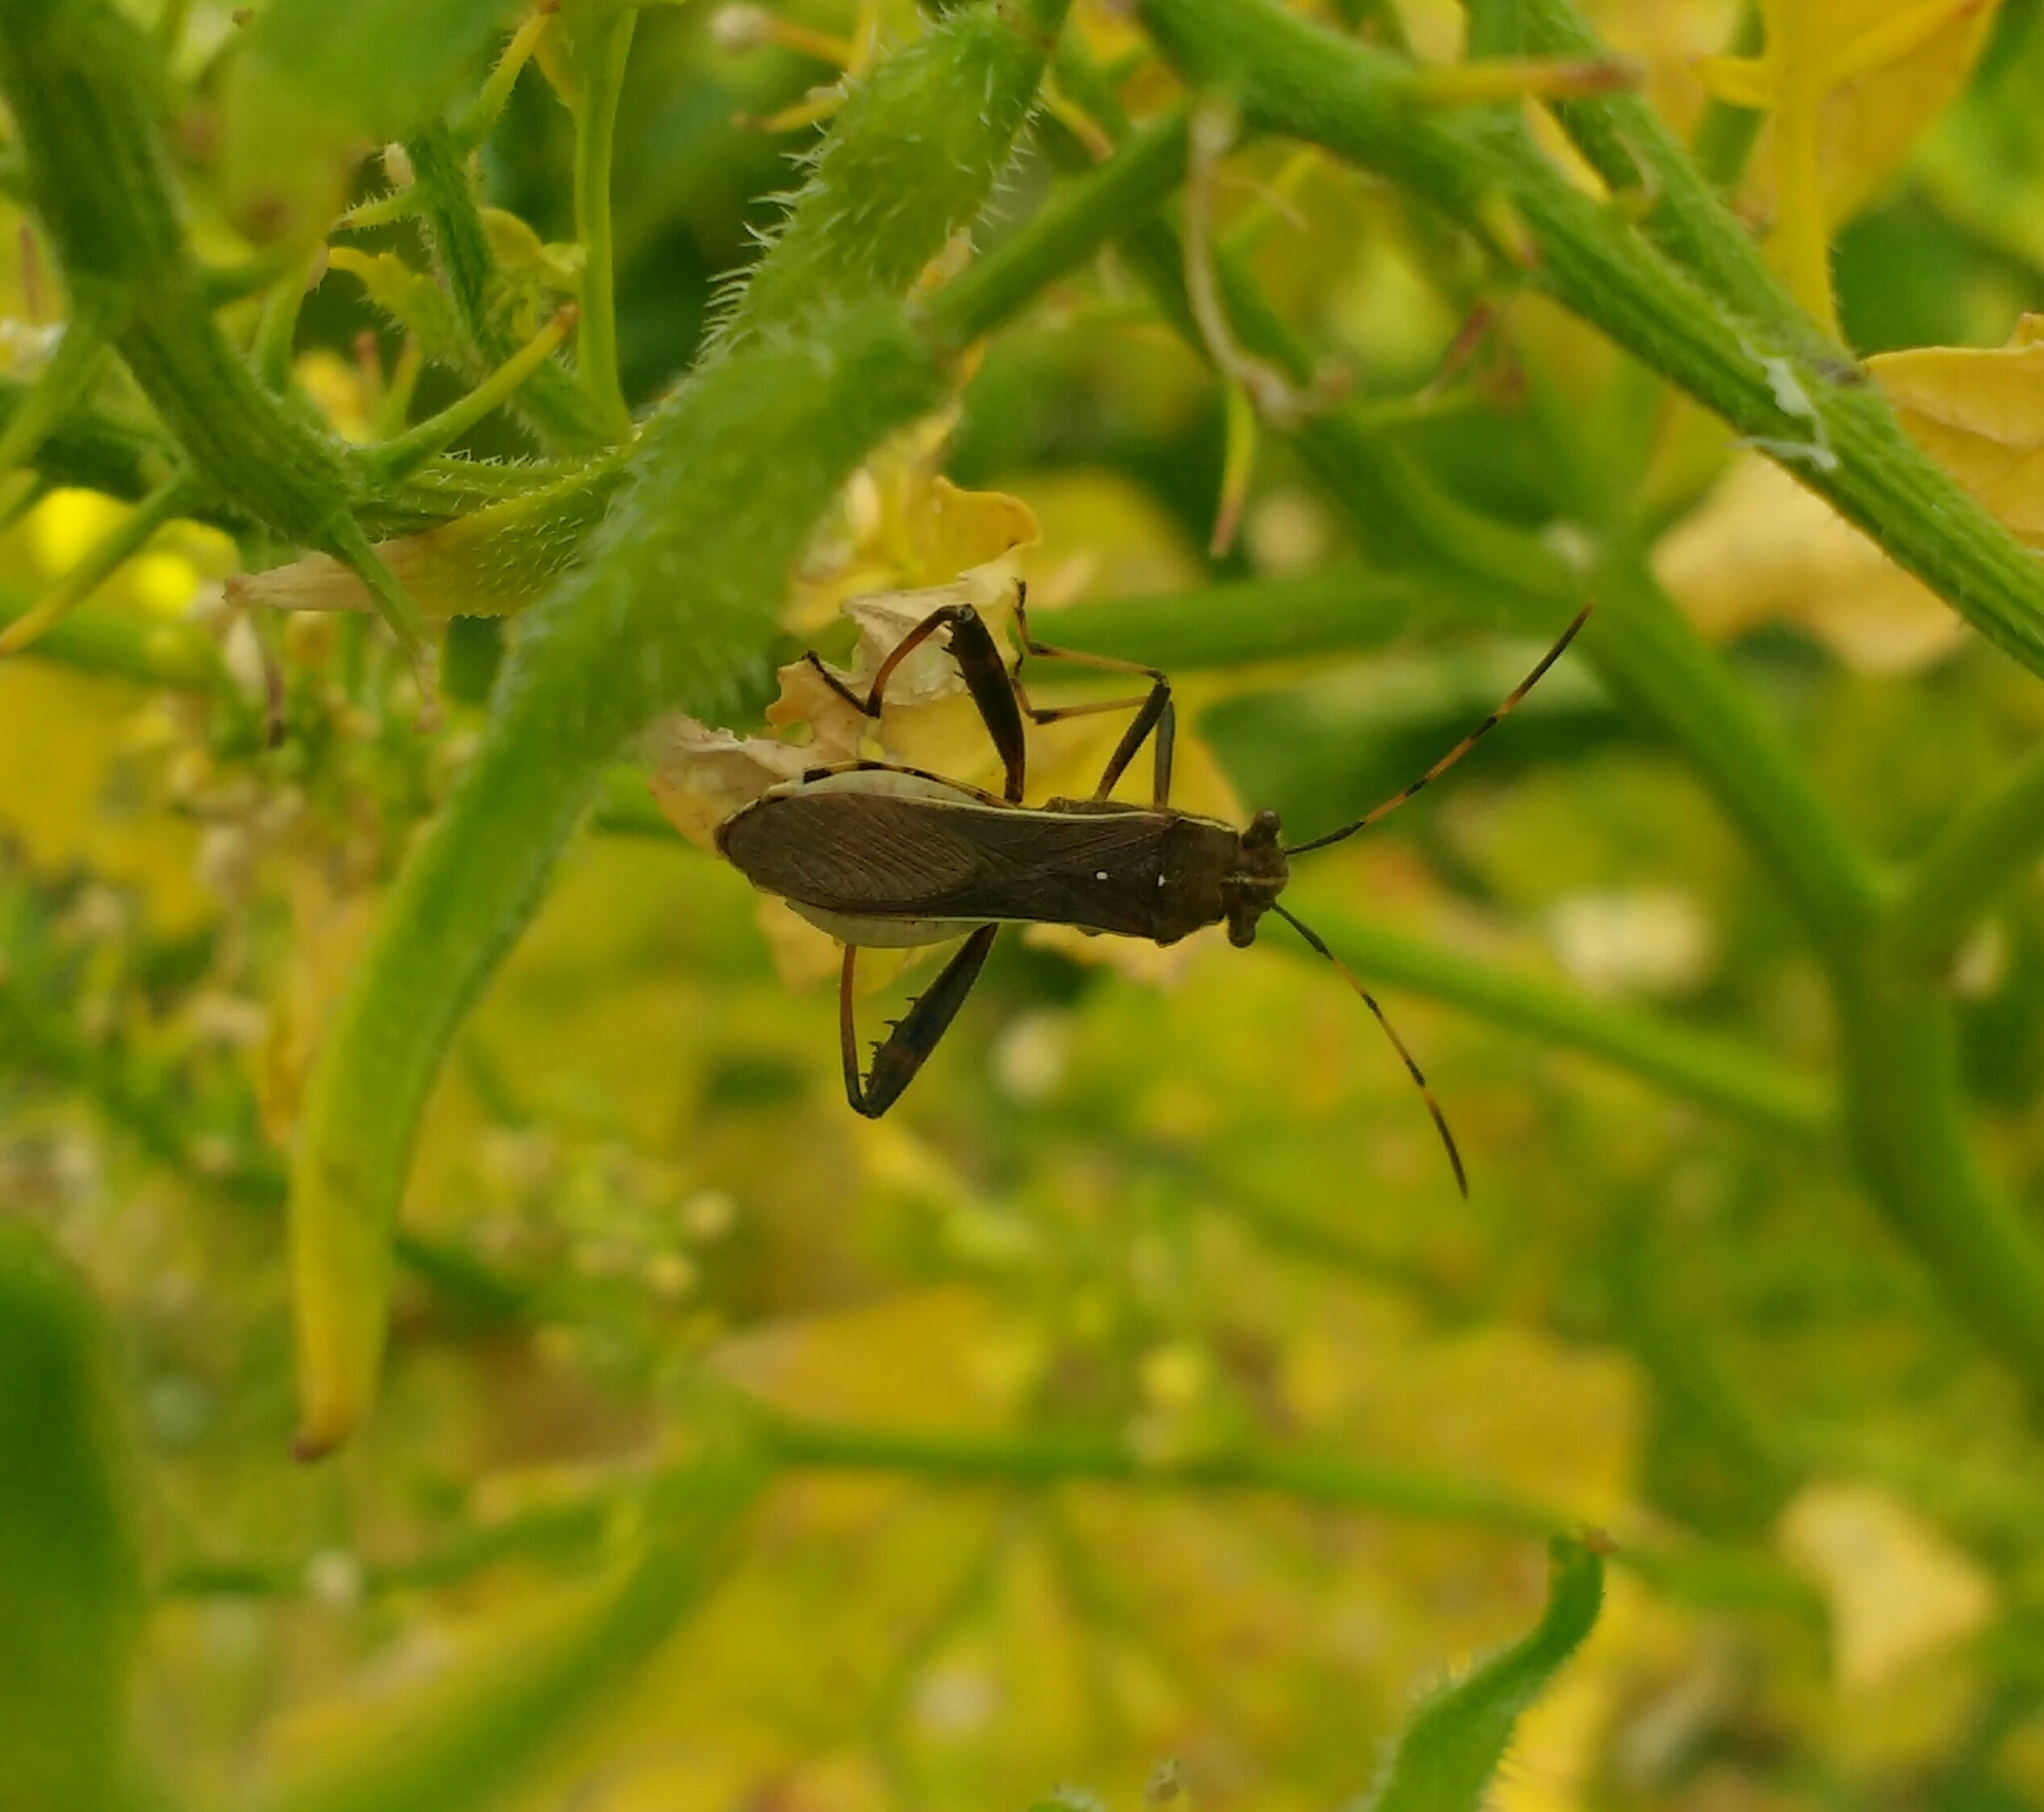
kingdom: Animalia
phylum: Arthropoda
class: Insecta
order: Hemiptera
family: Alydidae
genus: Camptopus
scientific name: Camptopus lateralis
